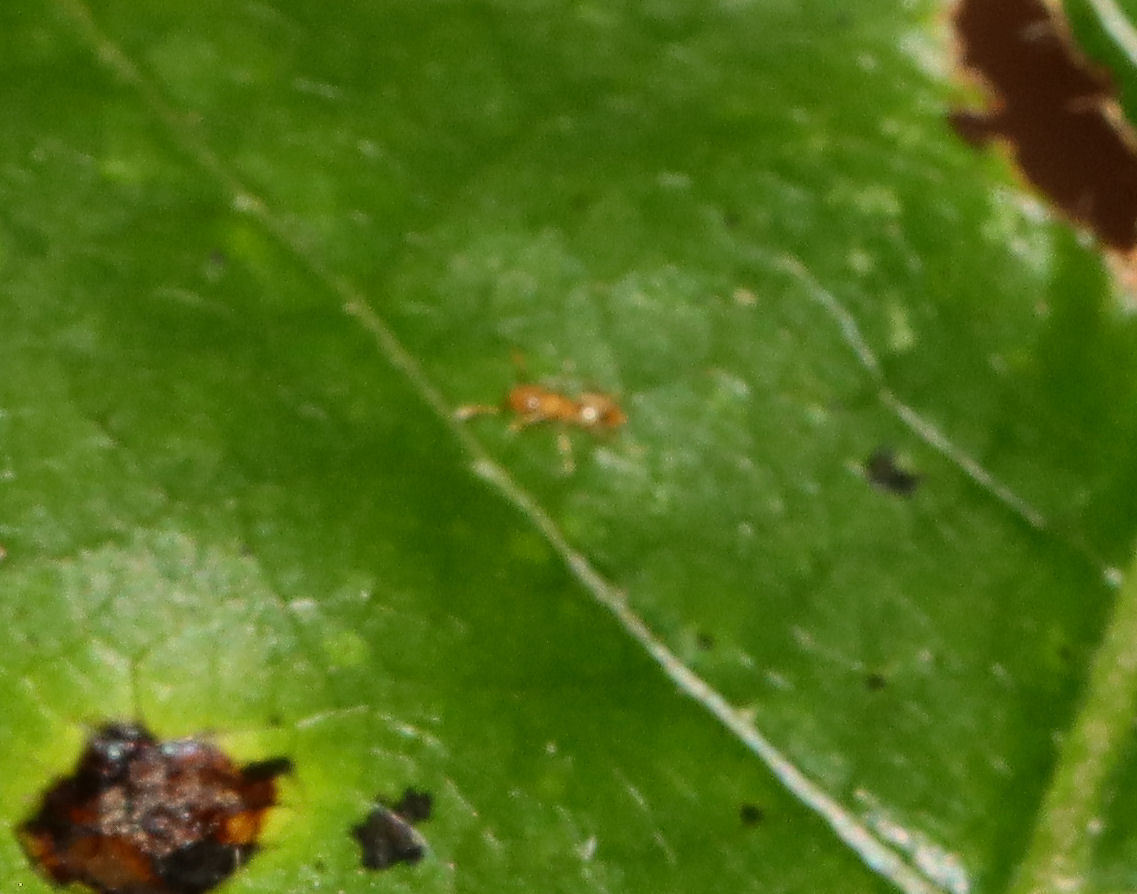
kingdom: Animalia
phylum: Arthropoda
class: Insecta
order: Hymenoptera
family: Formicidae
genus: Brachymyrmex
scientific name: Brachymyrmex depilis
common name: Hairless rover ant
